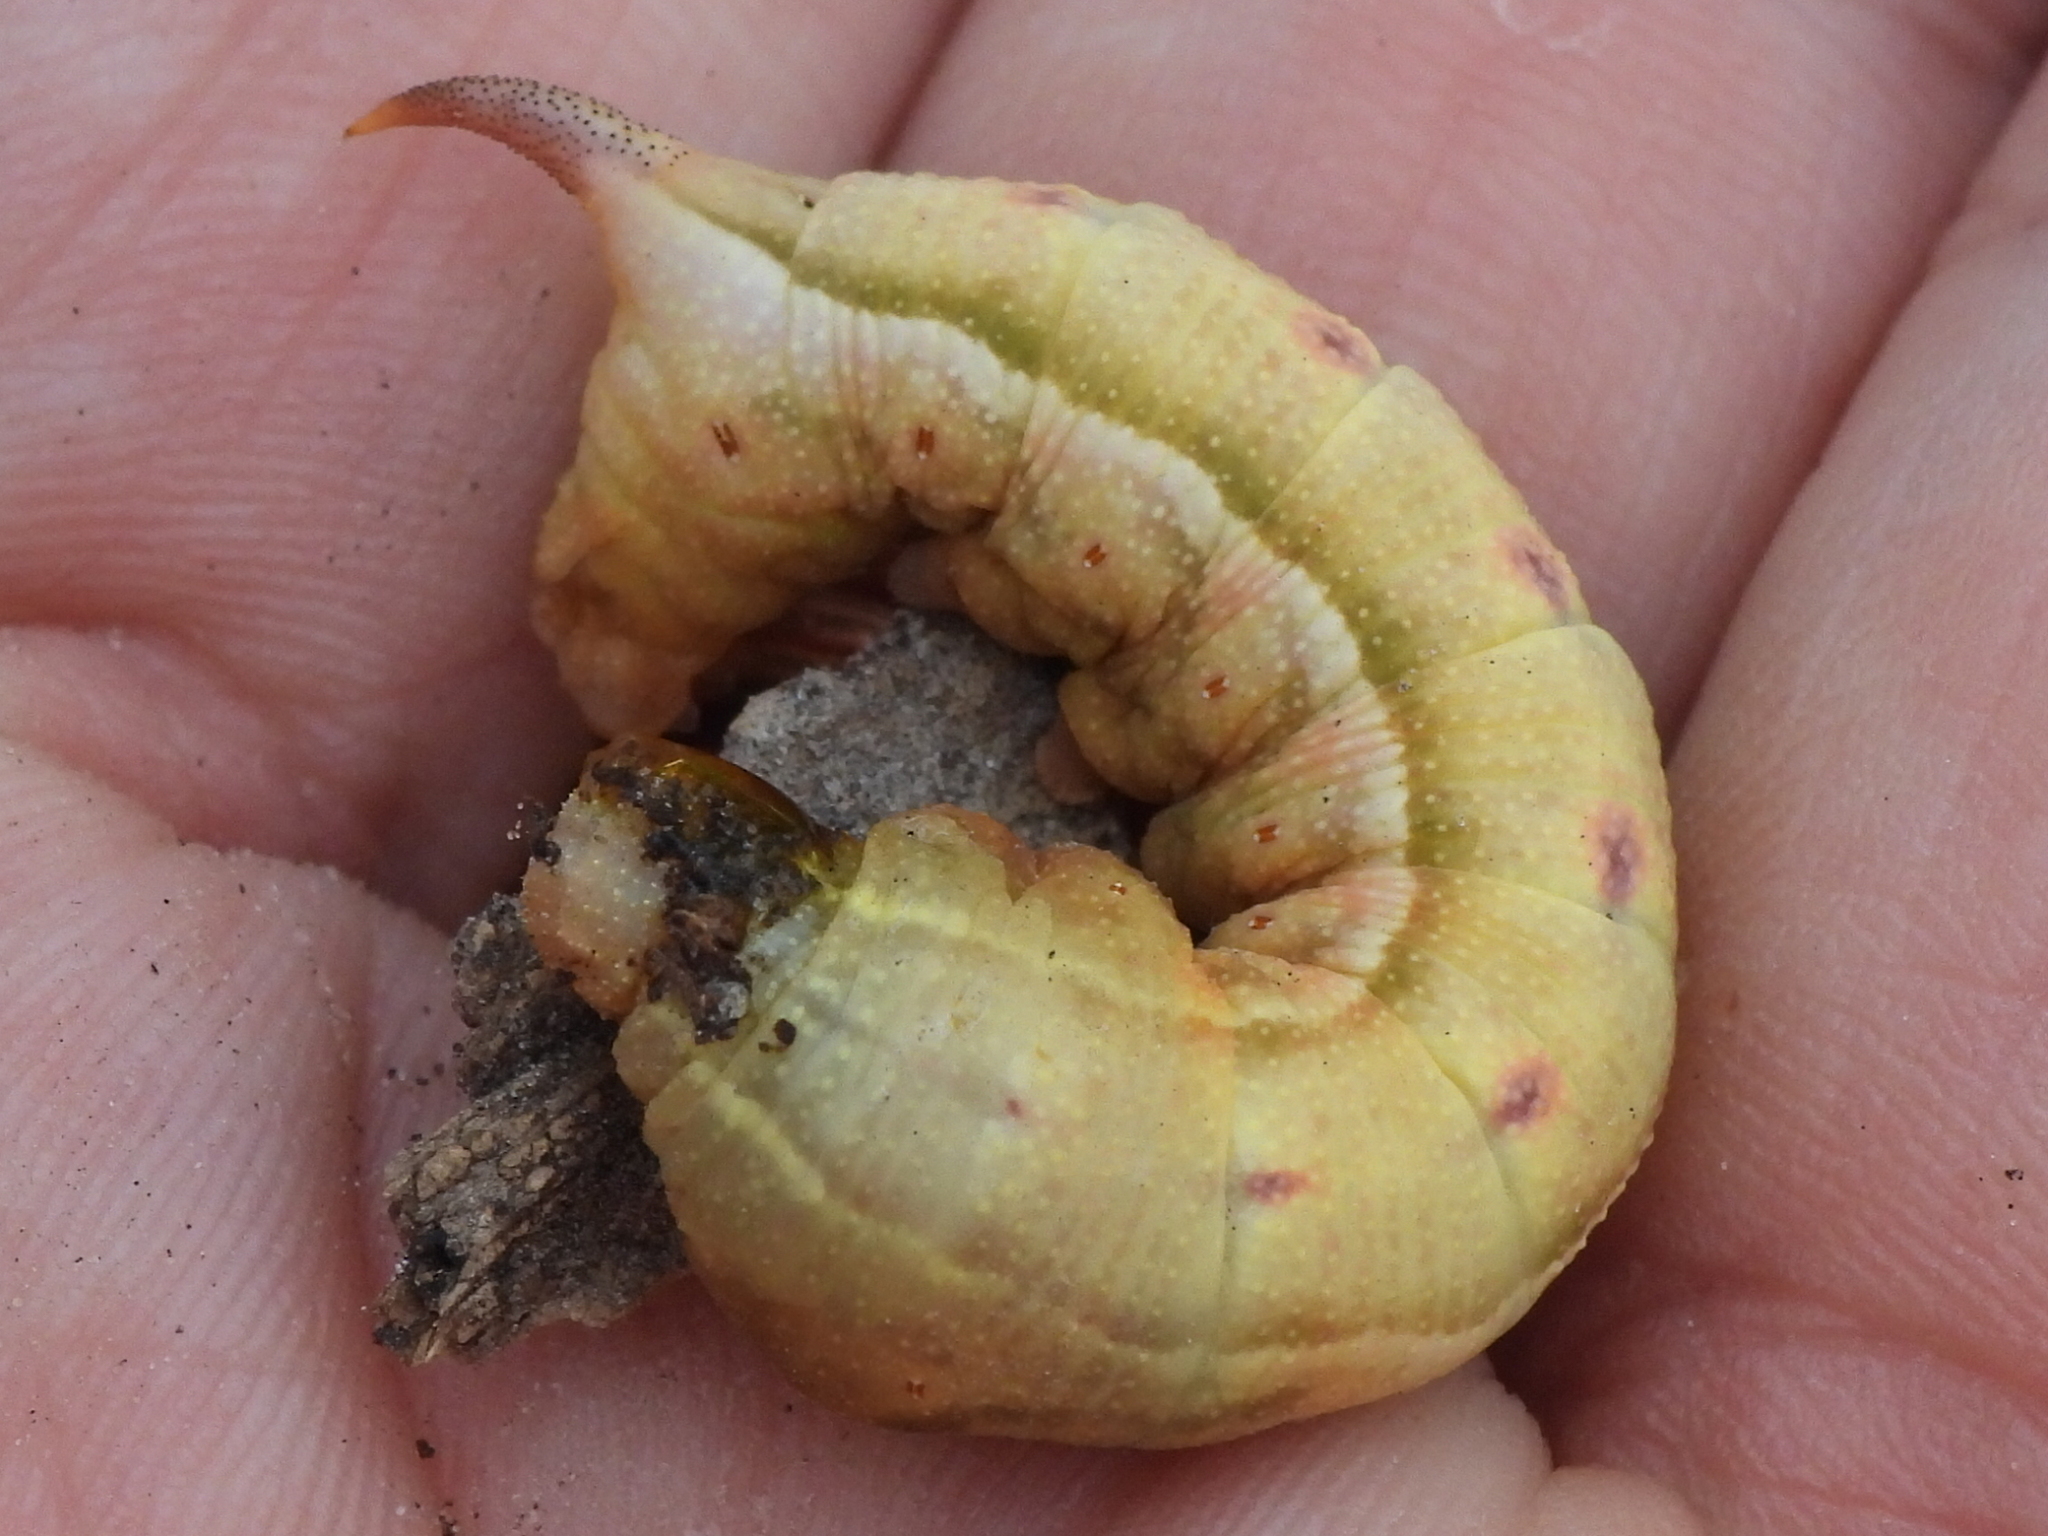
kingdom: Animalia
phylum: Arthropoda
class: Insecta
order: Lepidoptera
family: Sphingidae
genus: Darapsa
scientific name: Darapsa myron
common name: Hog sphinx
